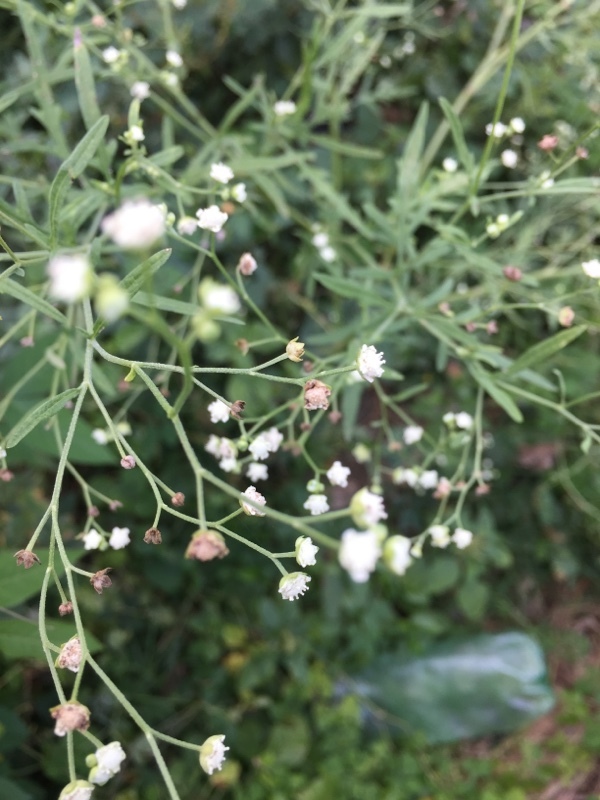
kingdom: Plantae
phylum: Tracheophyta
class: Magnoliopsida
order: Asterales
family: Asteraceae
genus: Parthenium
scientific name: Parthenium hysterophorus
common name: Santa maria feverfew
